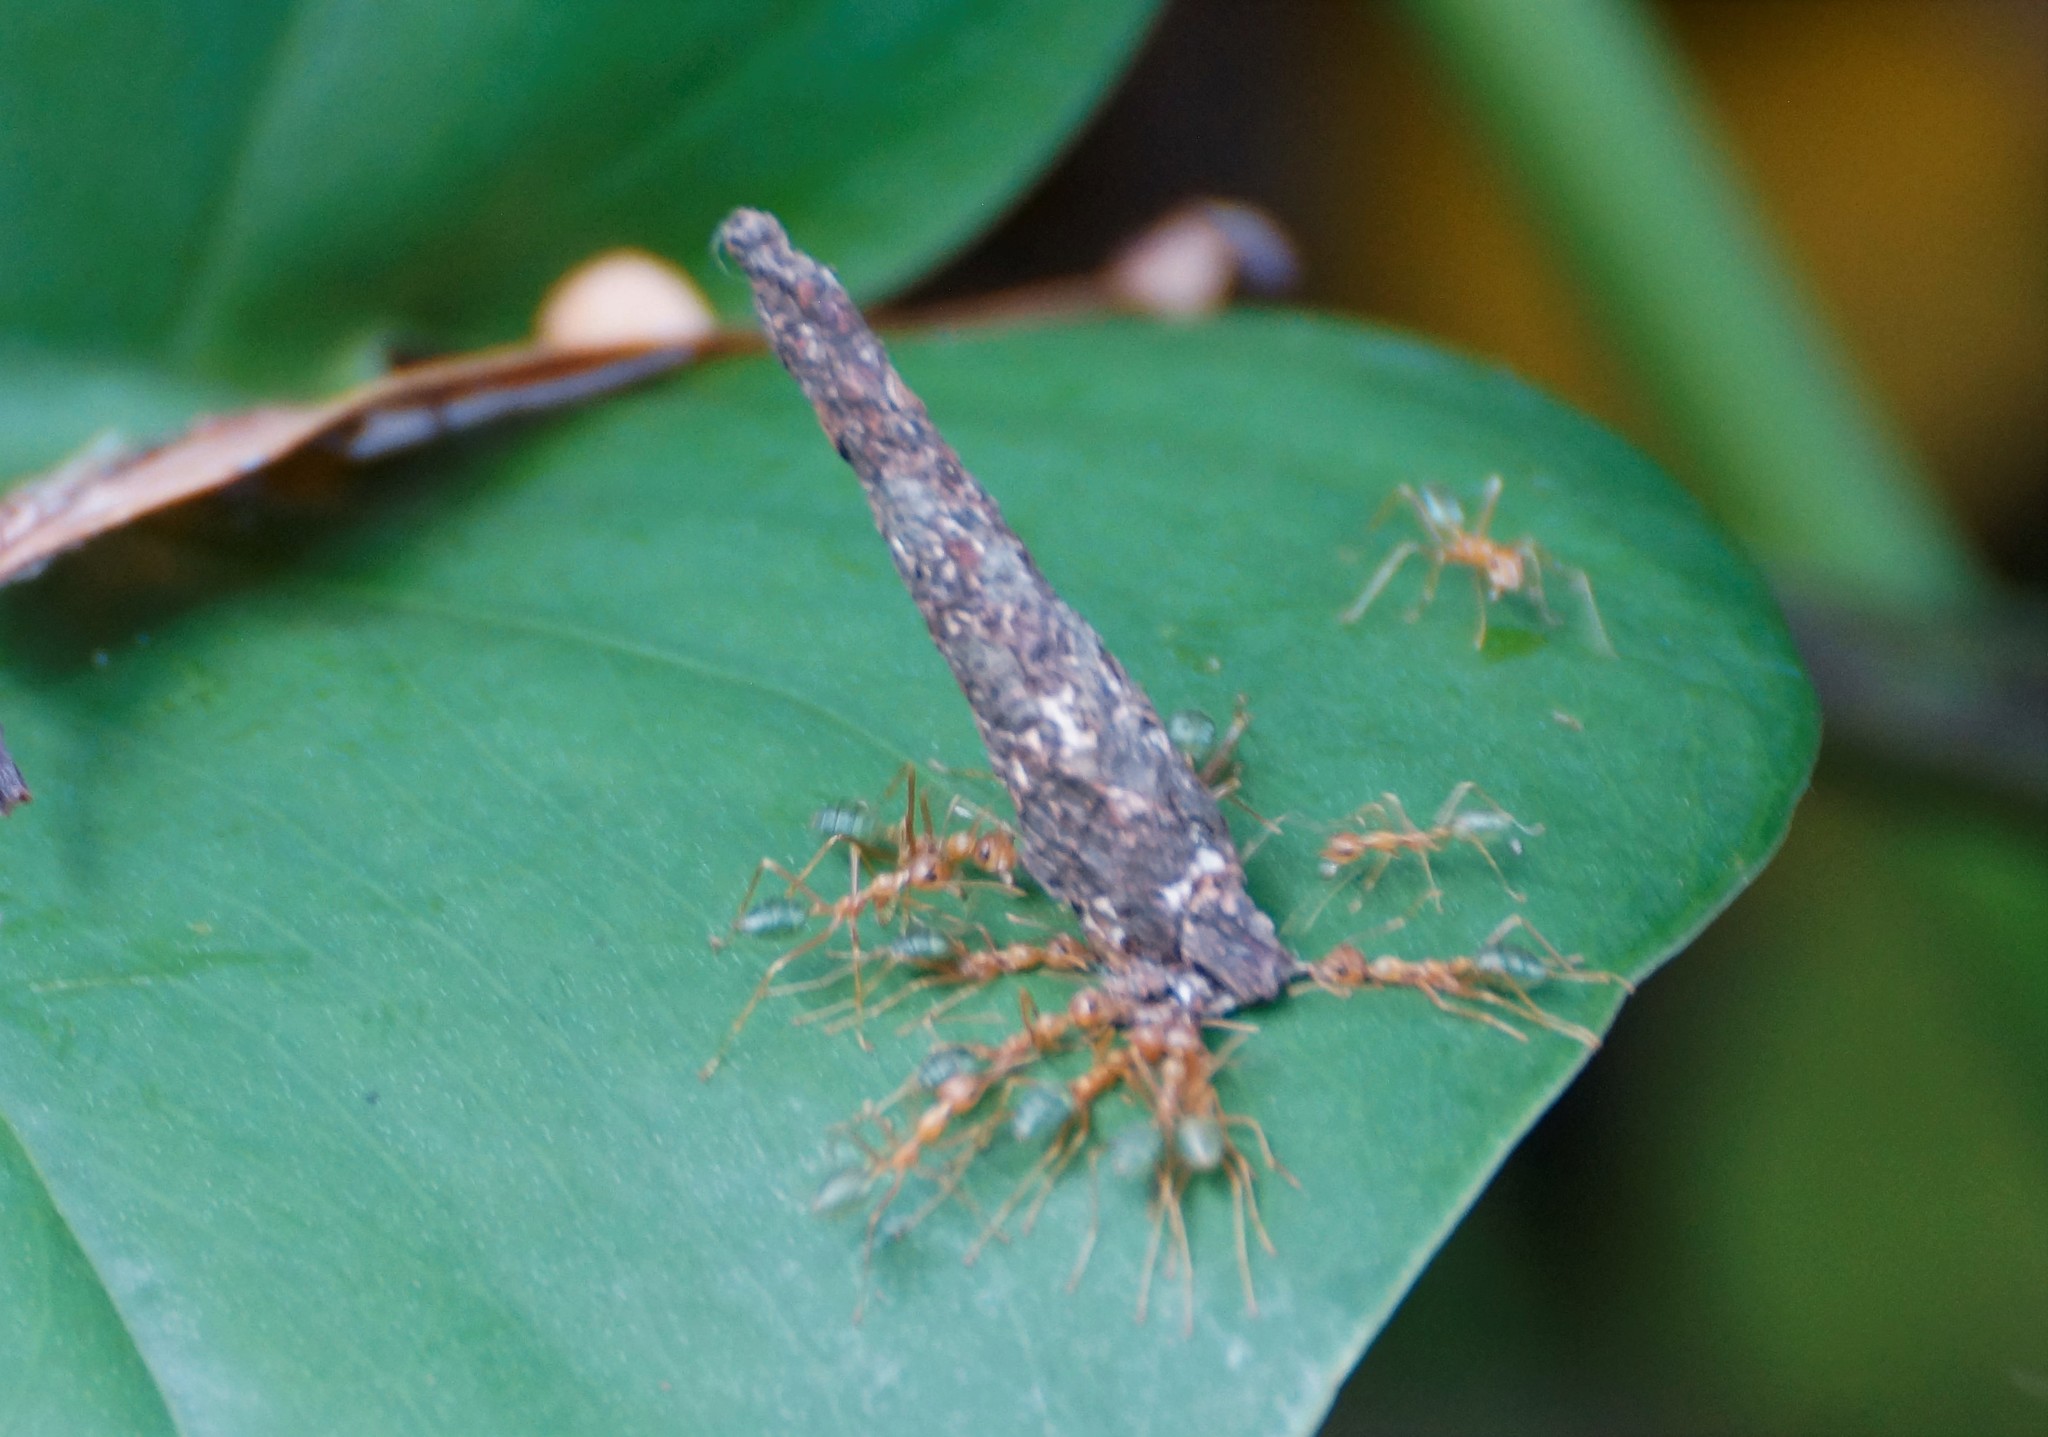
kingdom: Animalia
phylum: Arthropoda
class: Insecta
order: Hymenoptera
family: Formicidae
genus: Oecophylla
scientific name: Oecophylla smaragdina
